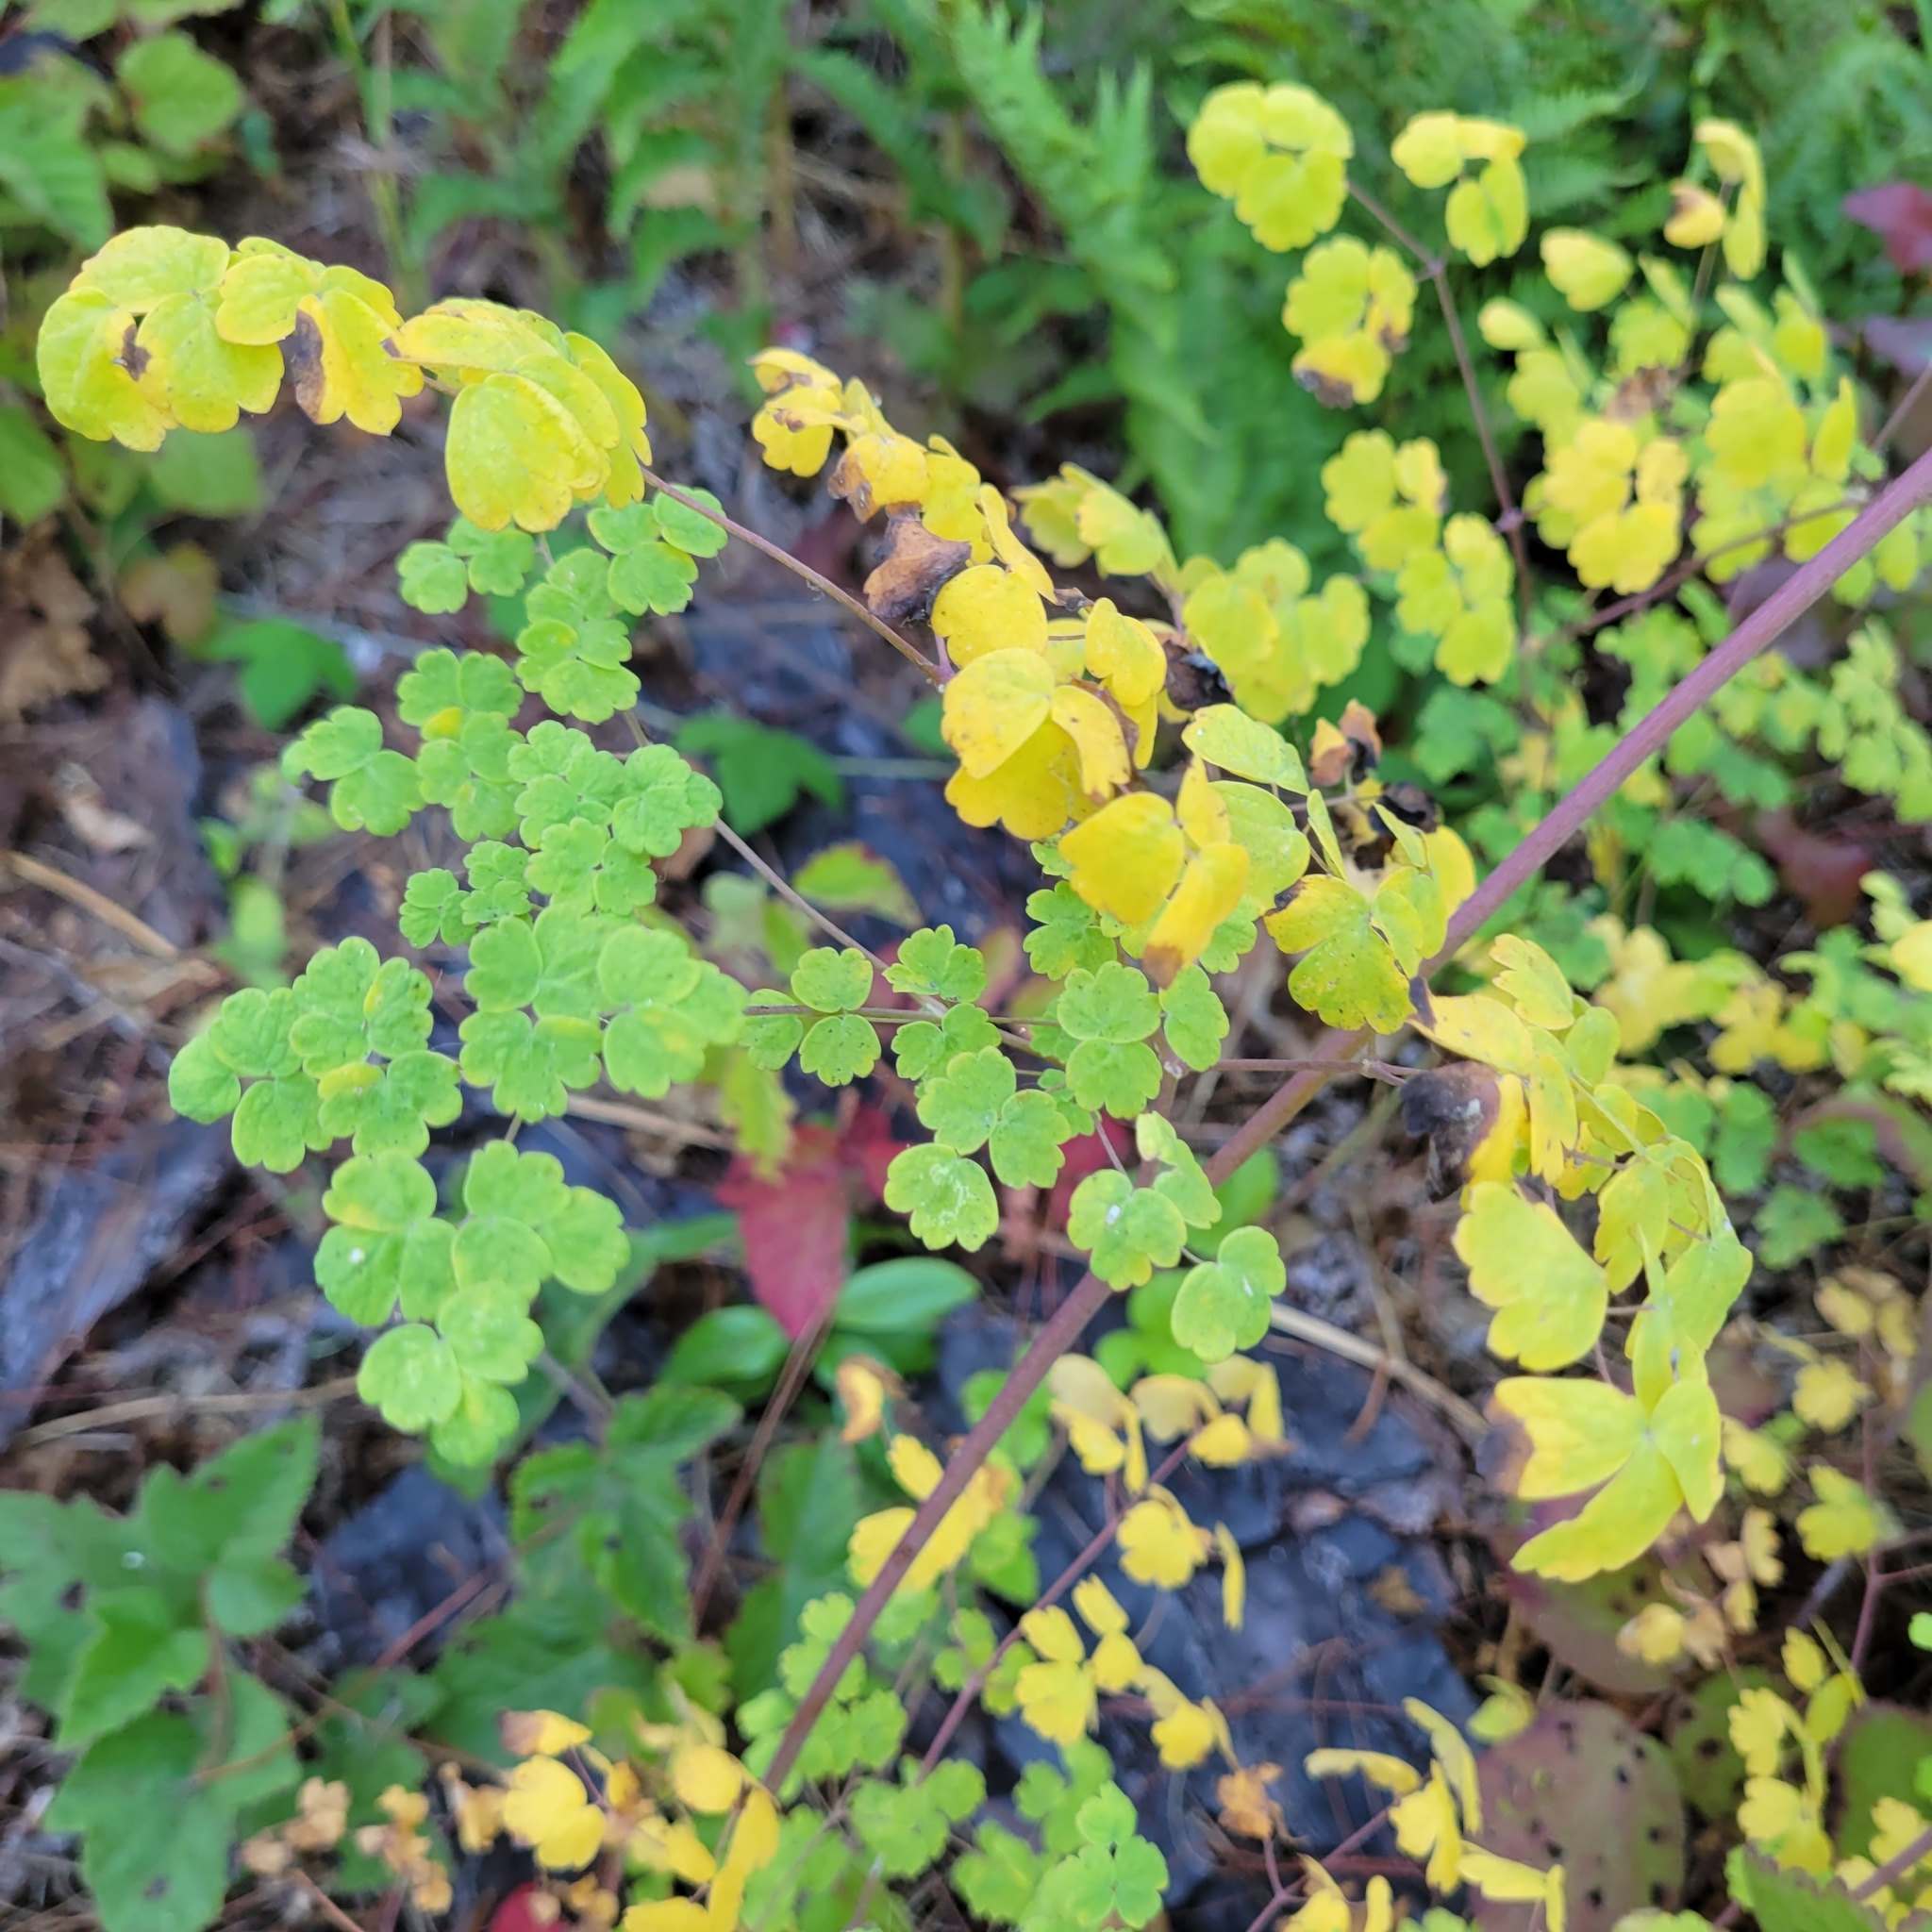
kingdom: Plantae
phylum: Tracheophyta
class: Magnoliopsida
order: Ranunculales
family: Ranunculaceae
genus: Thalictrum
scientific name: Thalictrum fendleri
